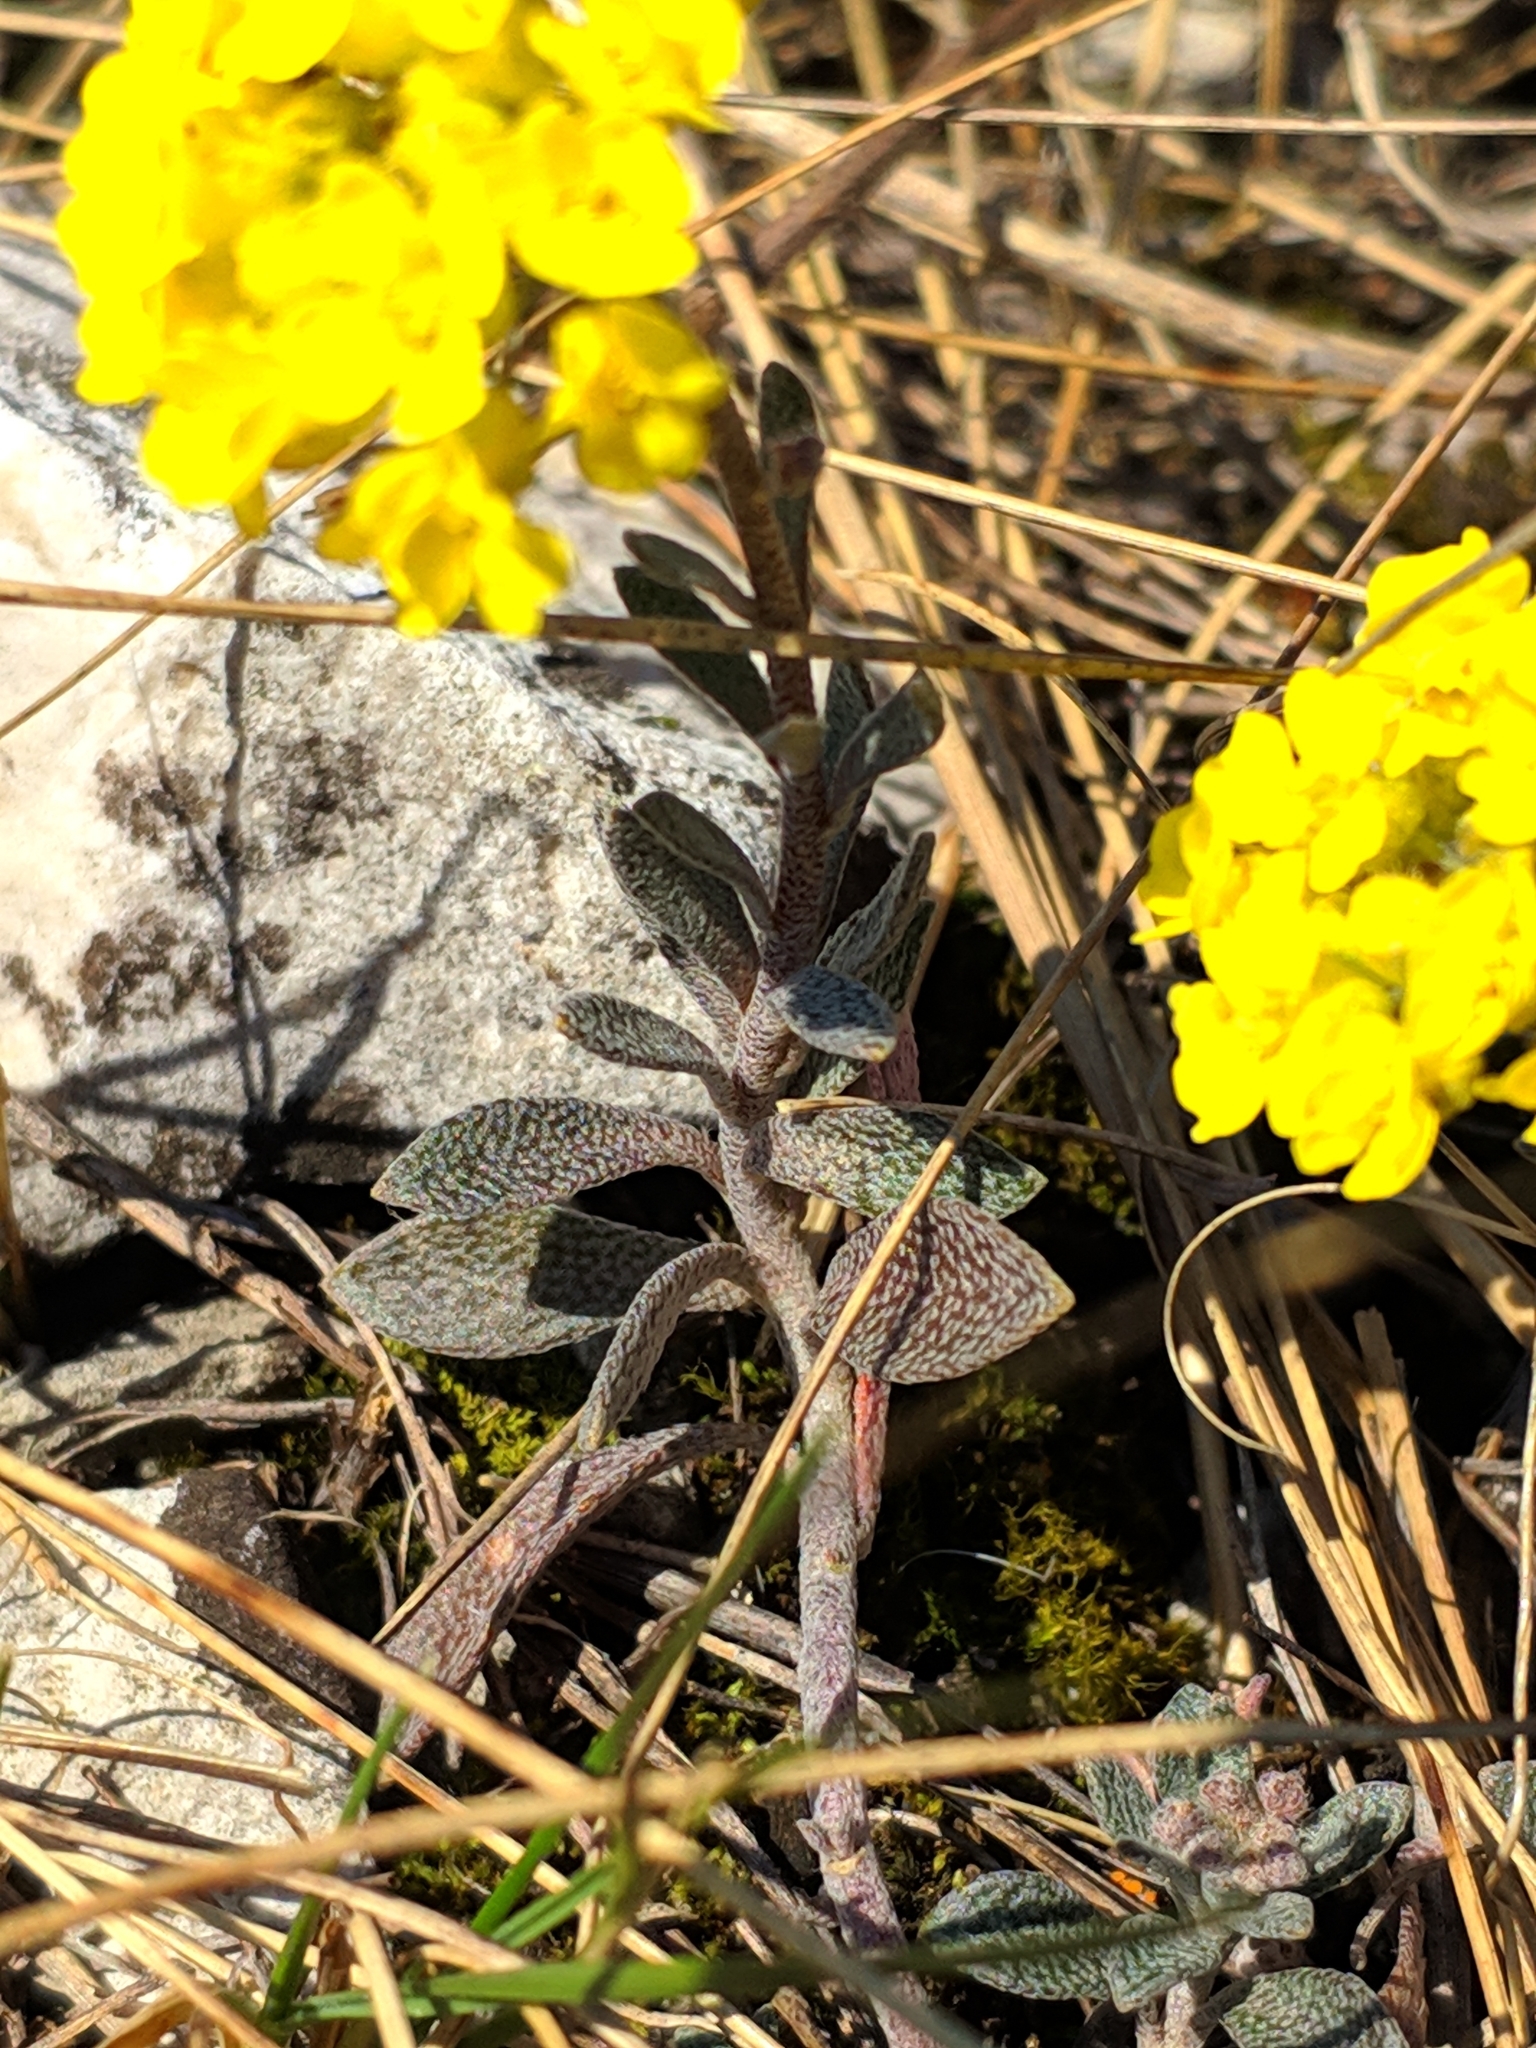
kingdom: Plantae
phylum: Tracheophyta
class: Magnoliopsida
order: Brassicales
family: Brassicaceae
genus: Alyssum
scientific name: Alyssum gmelinii
